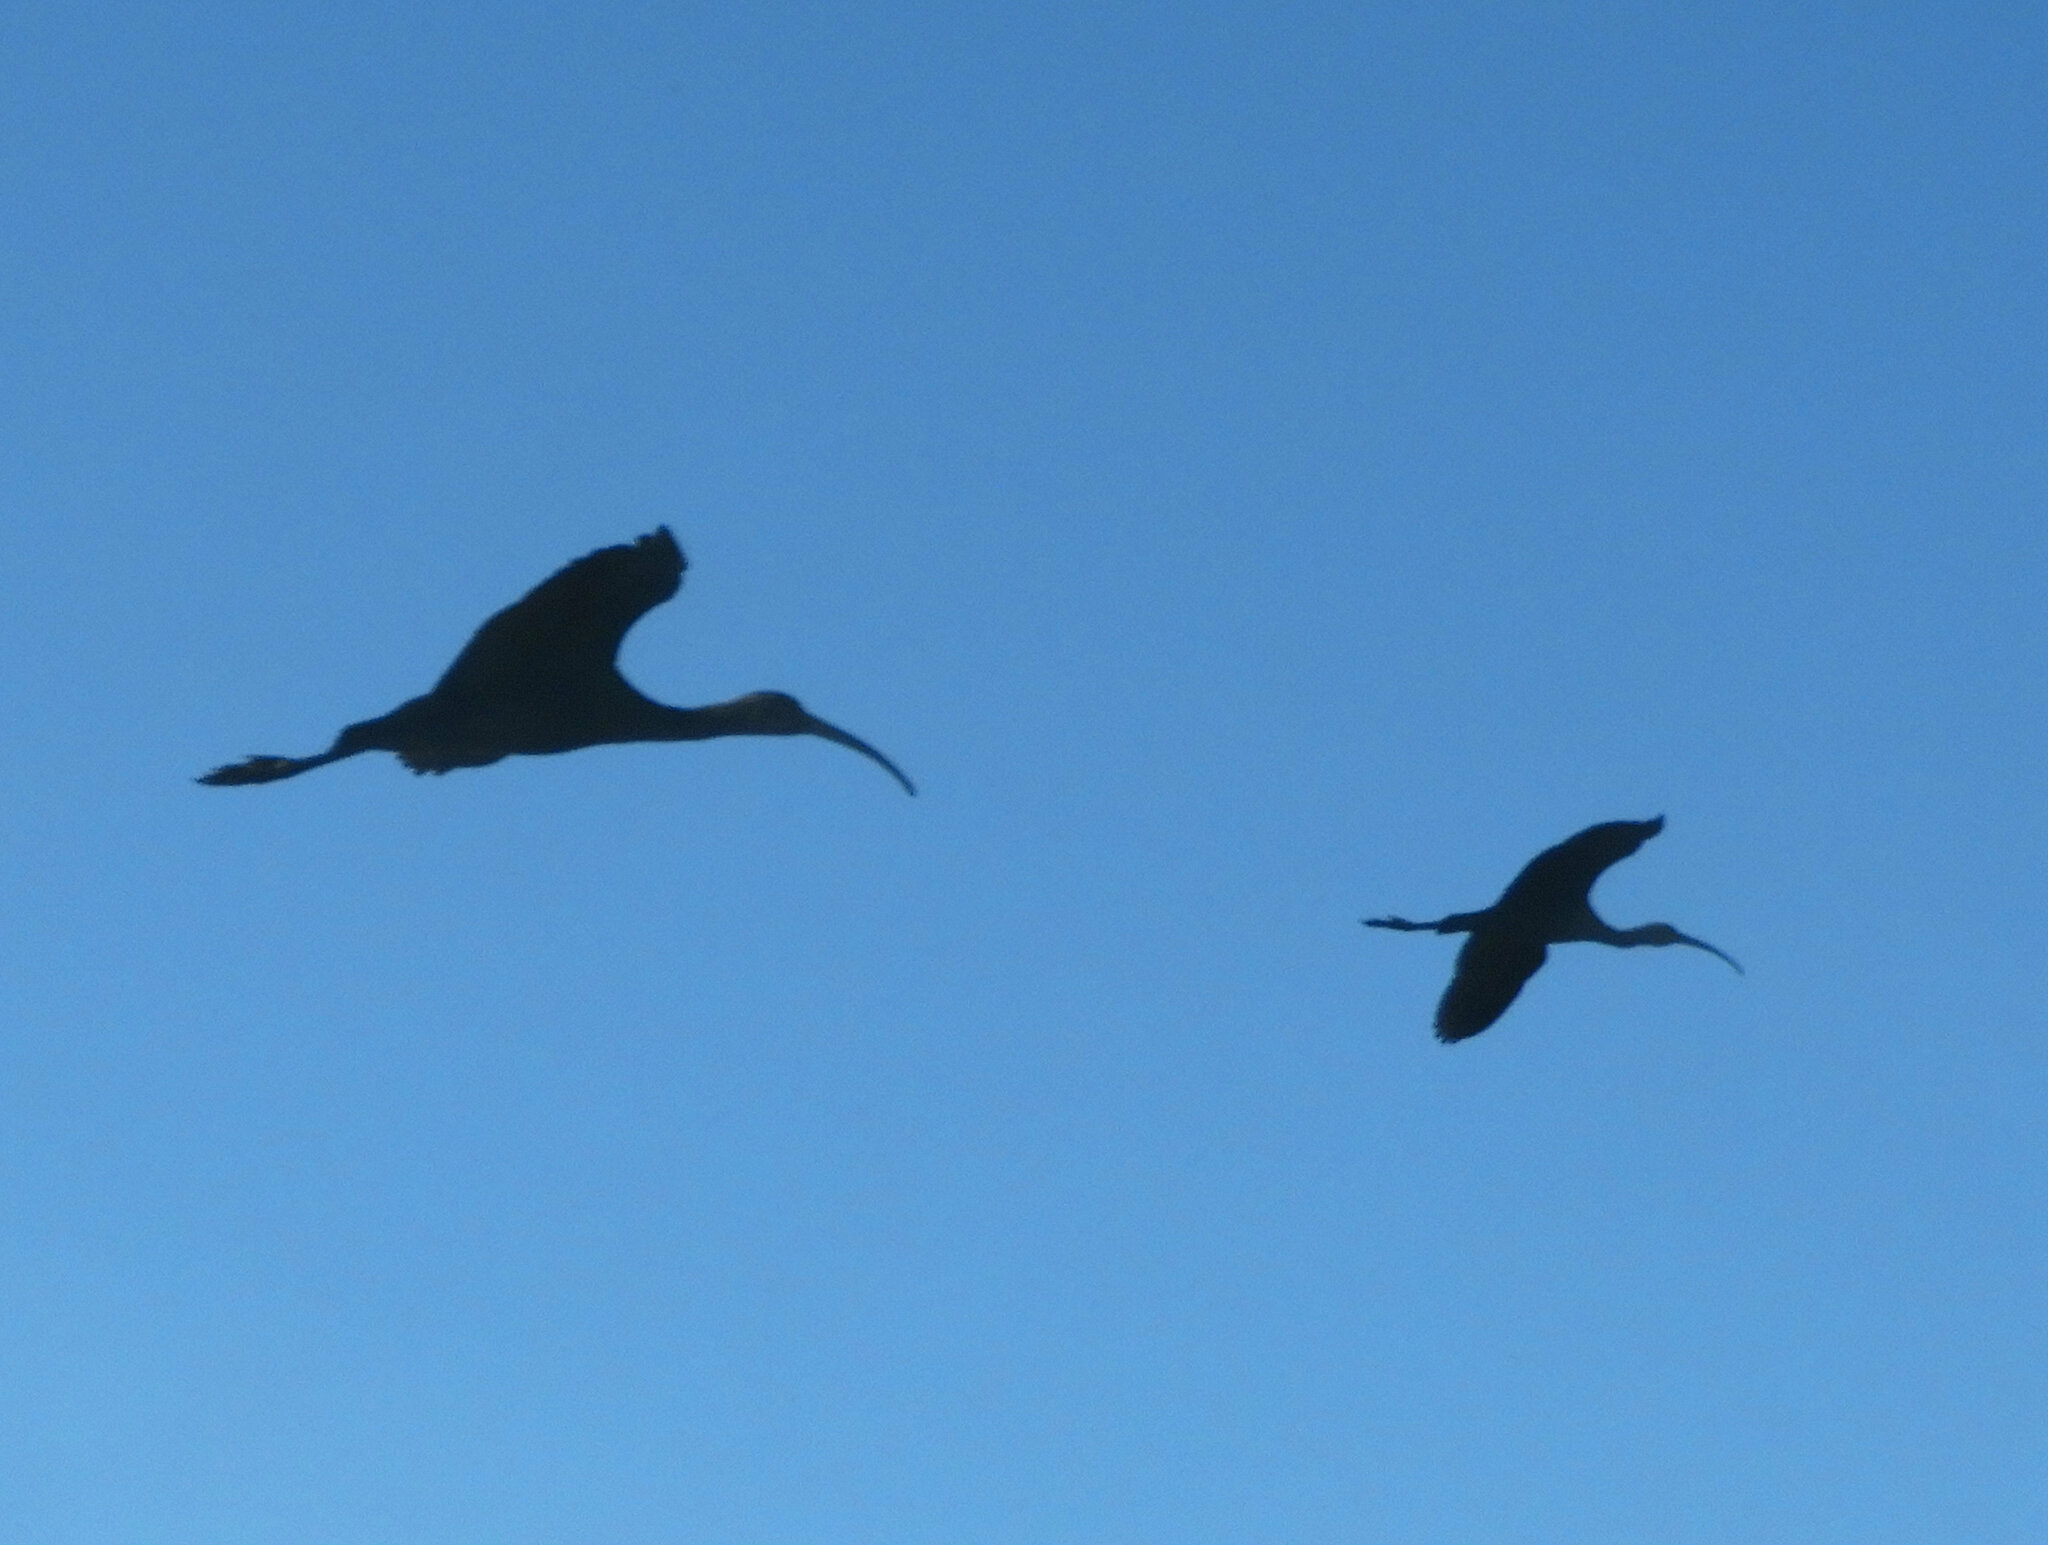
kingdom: Animalia
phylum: Chordata
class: Aves
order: Pelecaniformes
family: Threskiornithidae
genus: Plegadis
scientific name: Plegadis chihi
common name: White-faced ibis
